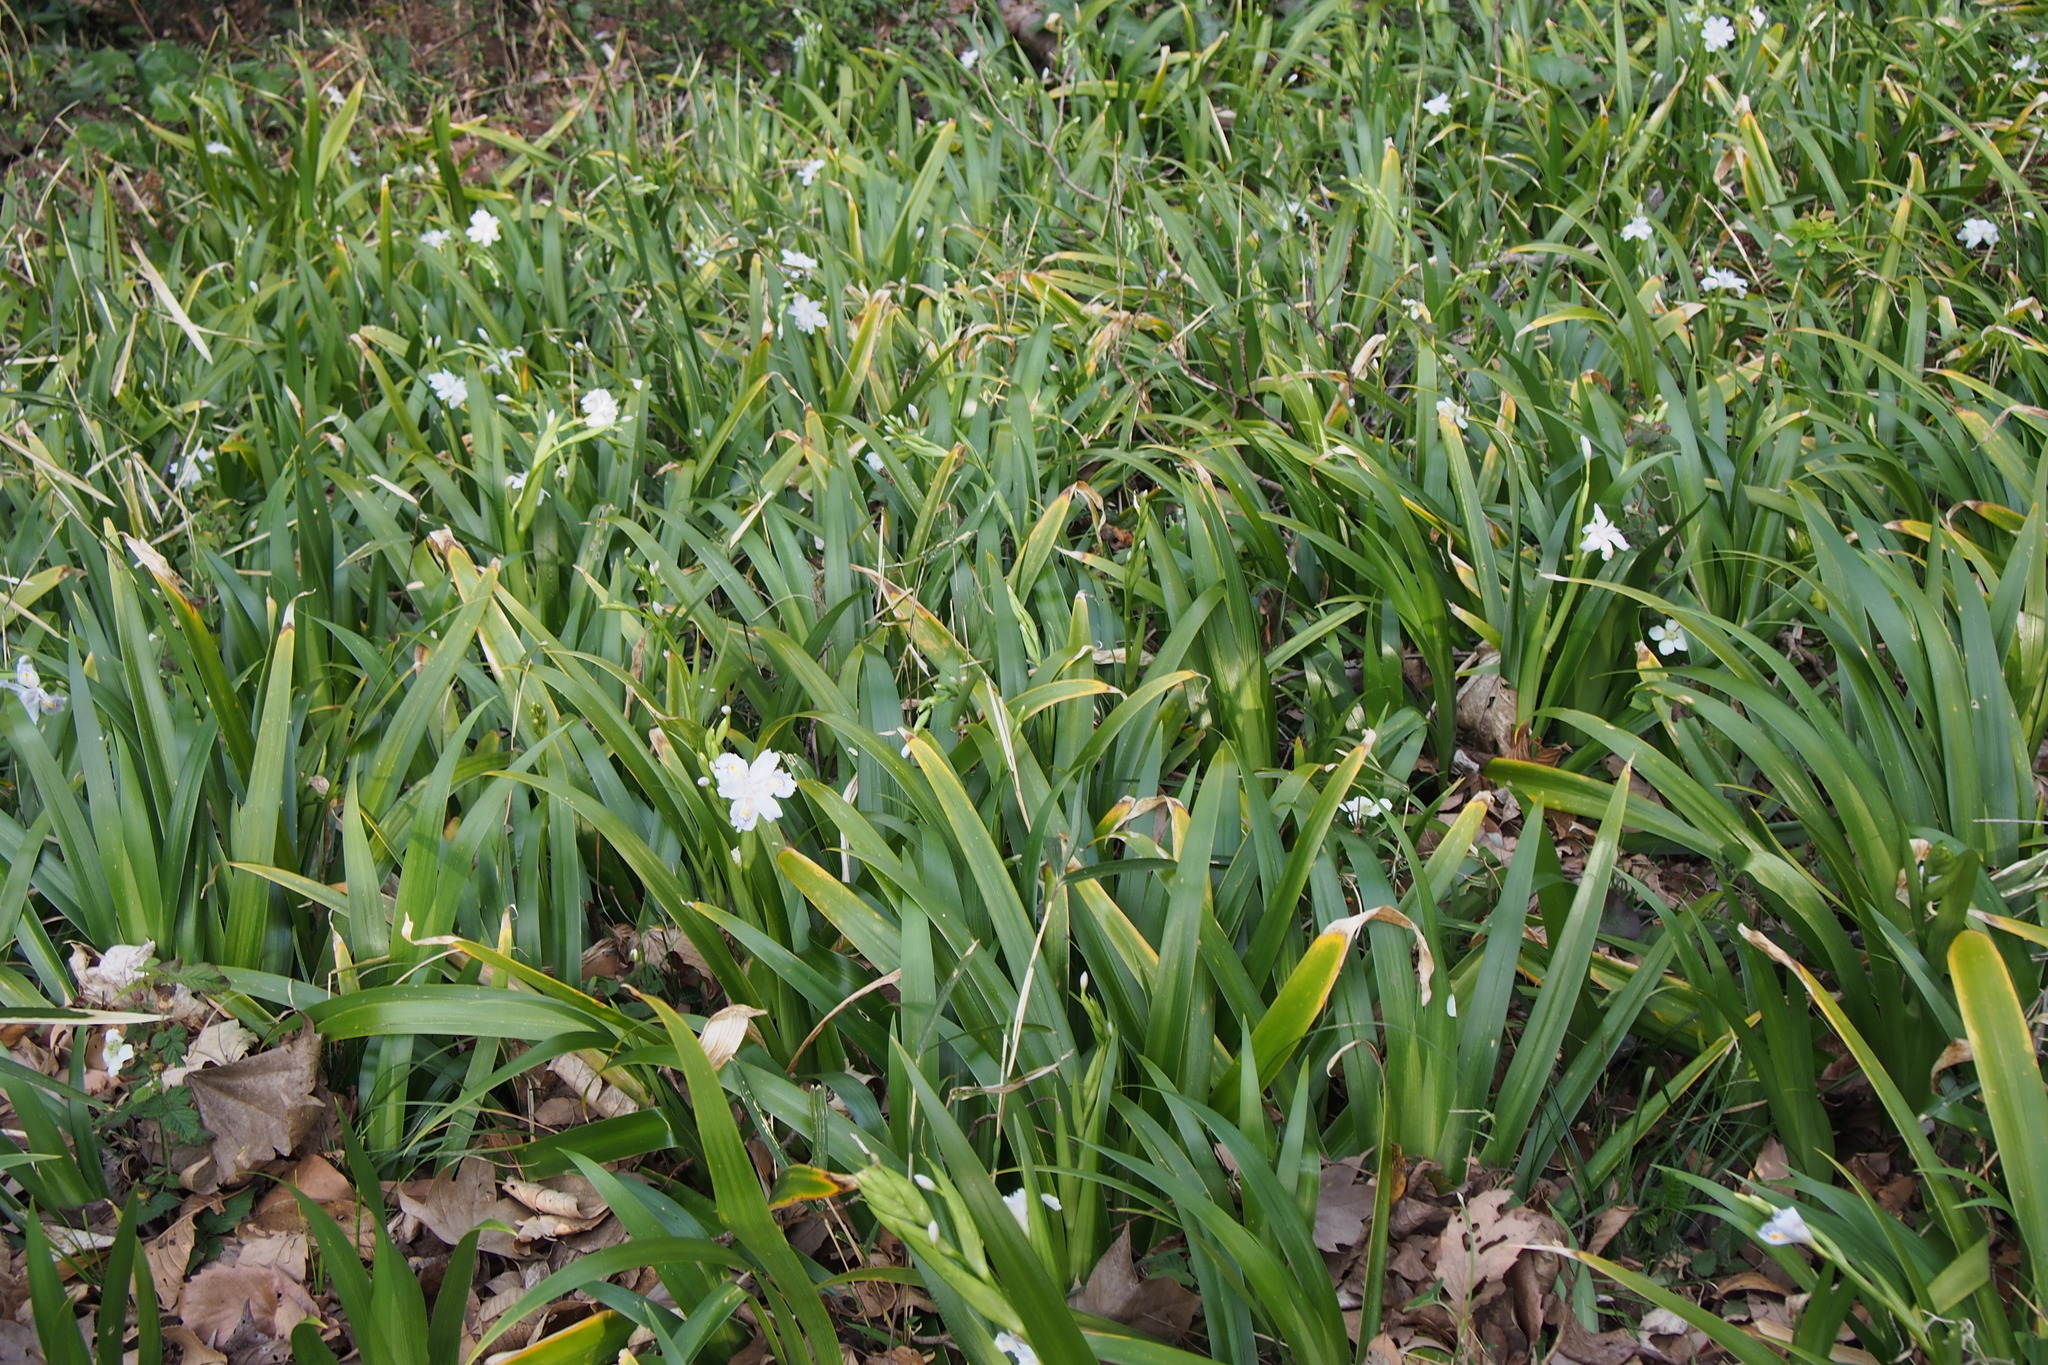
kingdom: Plantae
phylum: Tracheophyta
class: Liliopsida
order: Asparagales
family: Iridaceae
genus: Iris
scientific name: Iris japonica
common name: Butterfly-flower
